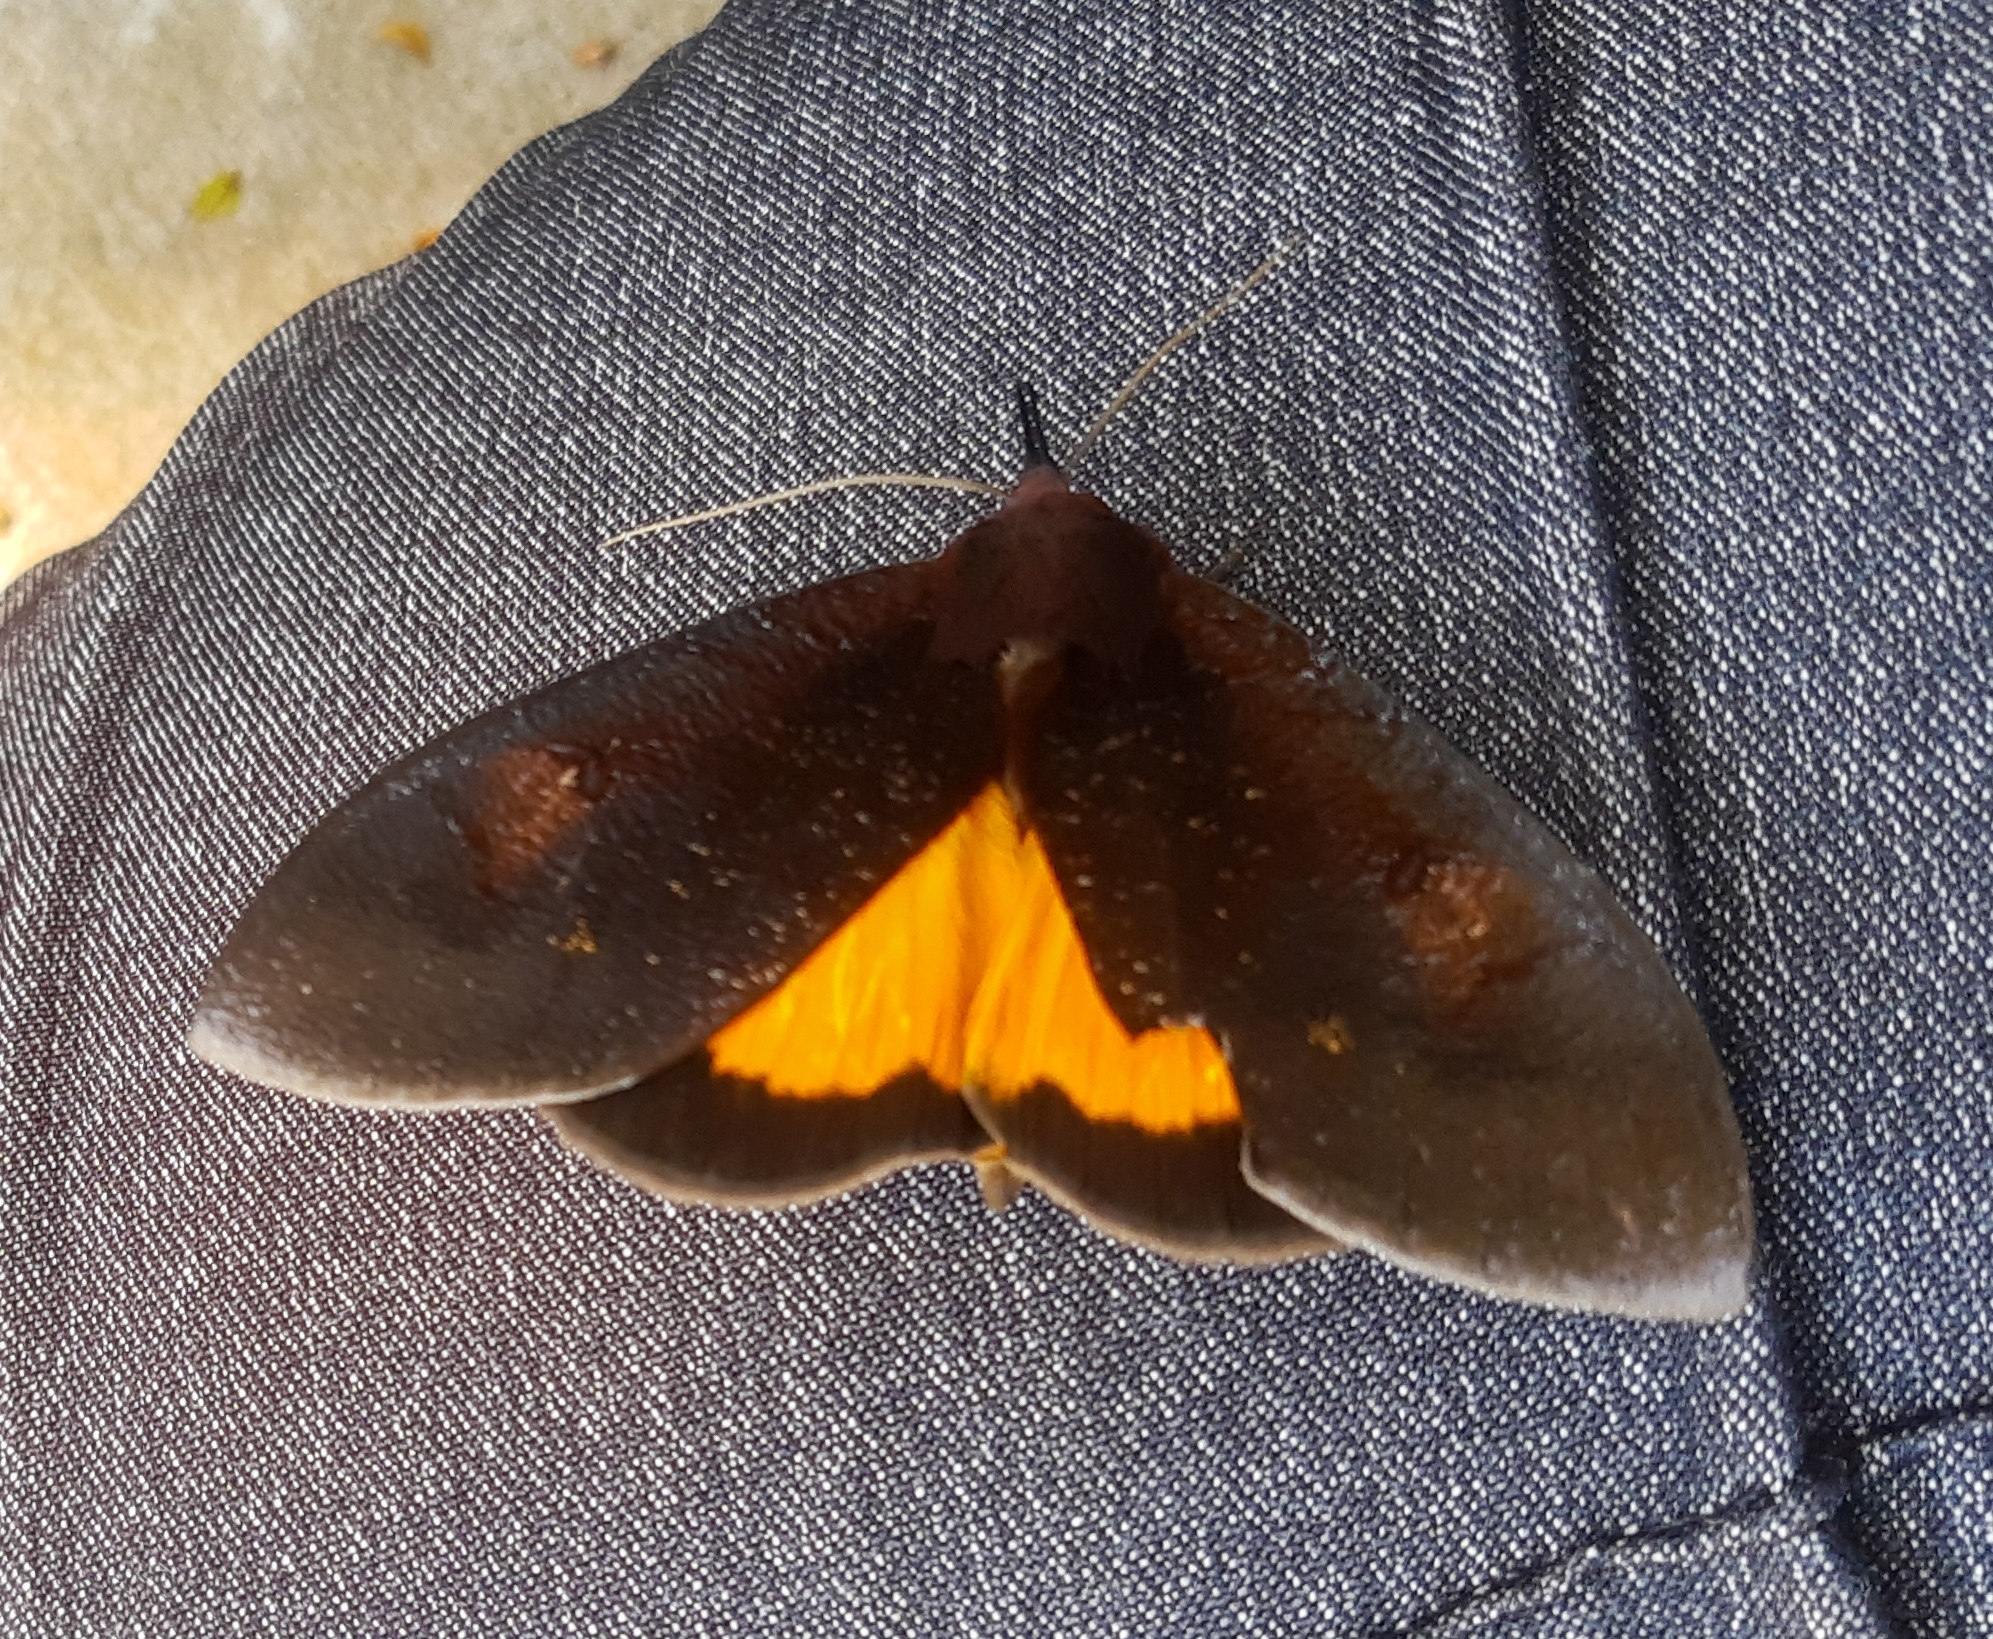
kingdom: Animalia
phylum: Arthropoda
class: Insecta
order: Lepidoptera
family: Erebidae
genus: Graphigona
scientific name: Graphigona regina
